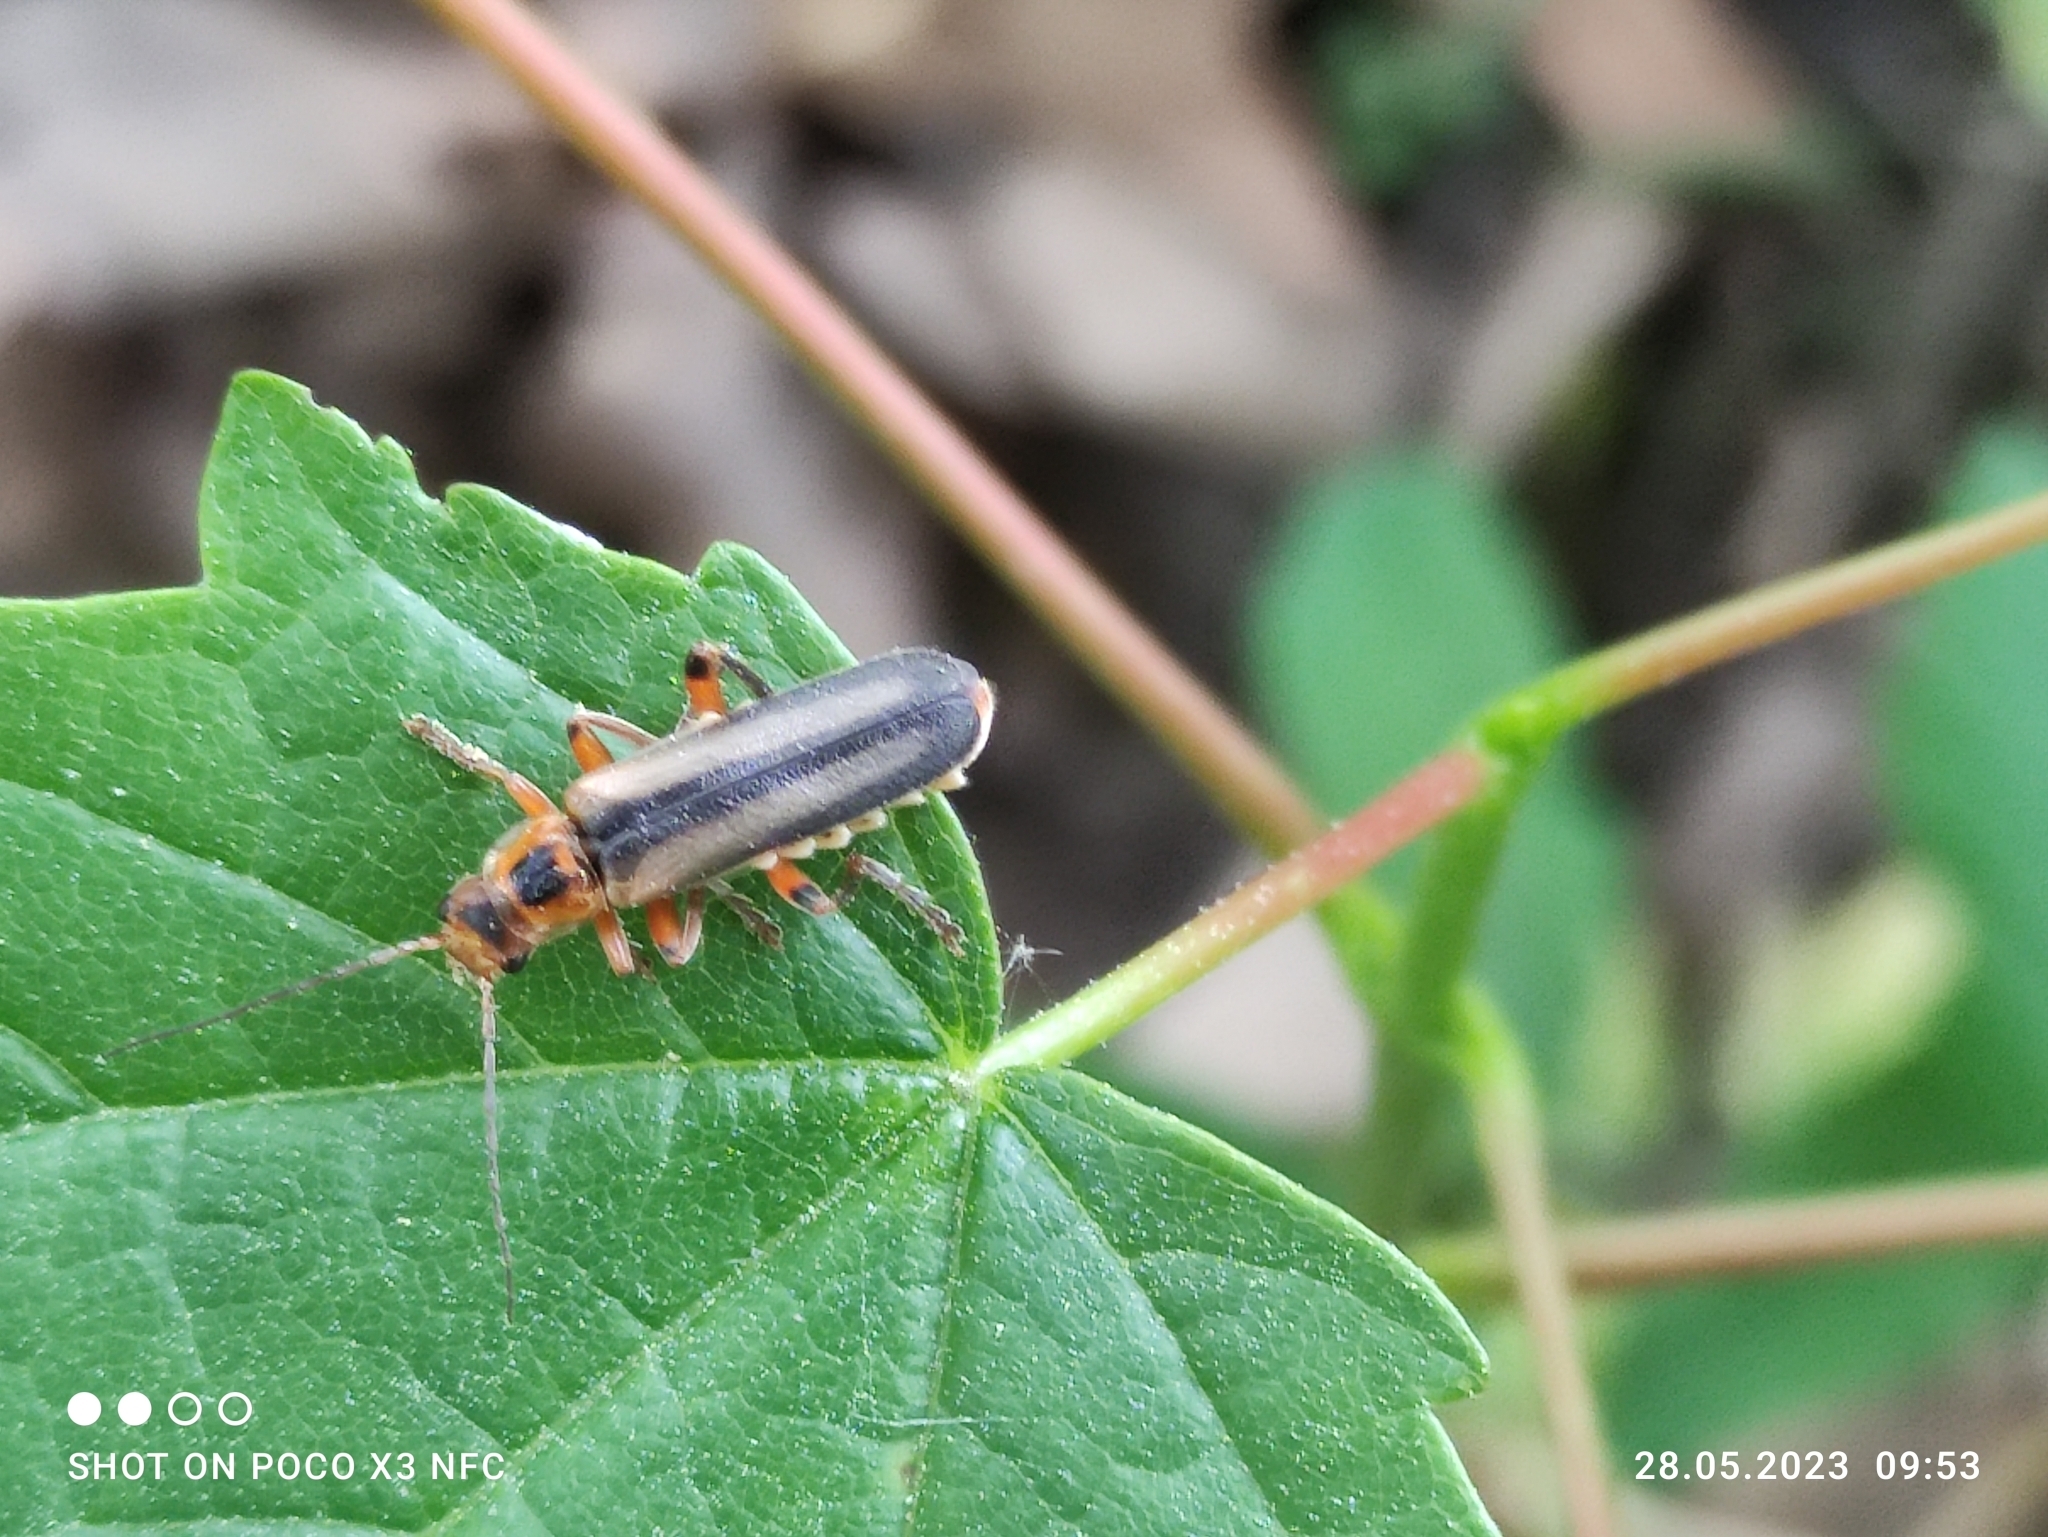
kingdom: Animalia
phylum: Arthropoda
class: Insecta
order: Coleoptera
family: Cantharidae
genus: Metacantharis
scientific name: Metacantharis discoidea
